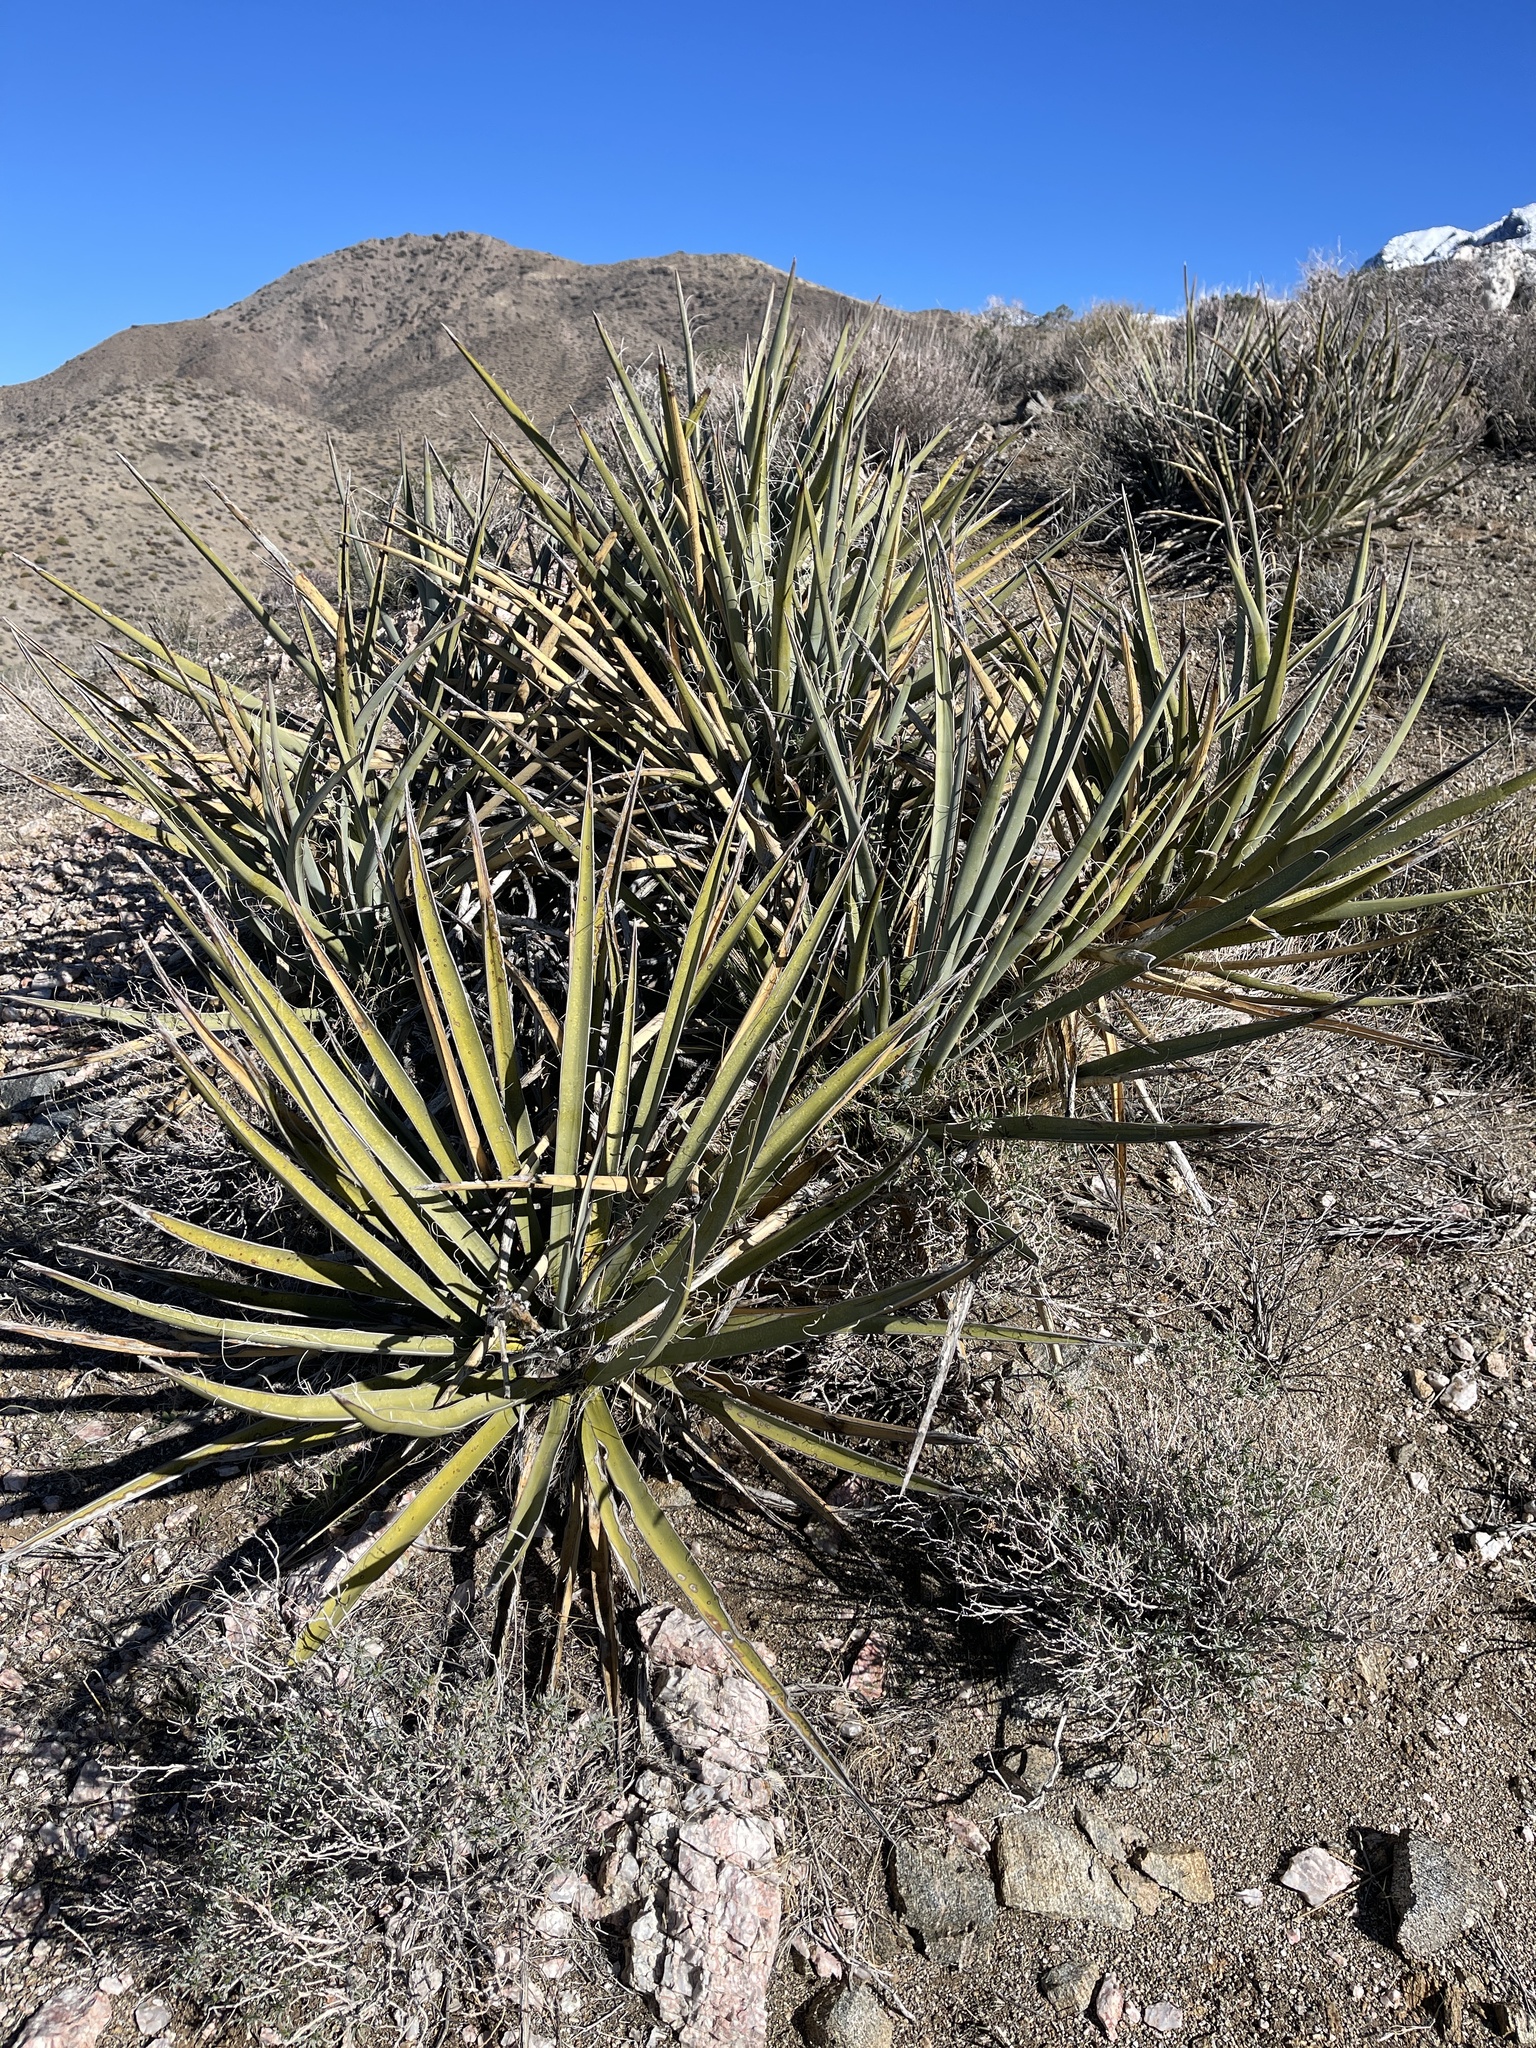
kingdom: Plantae
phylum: Tracheophyta
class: Liliopsida
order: Asparagales
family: Asparagaceae
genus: Yucca
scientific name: Yucca baccata
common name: Banana yucca
